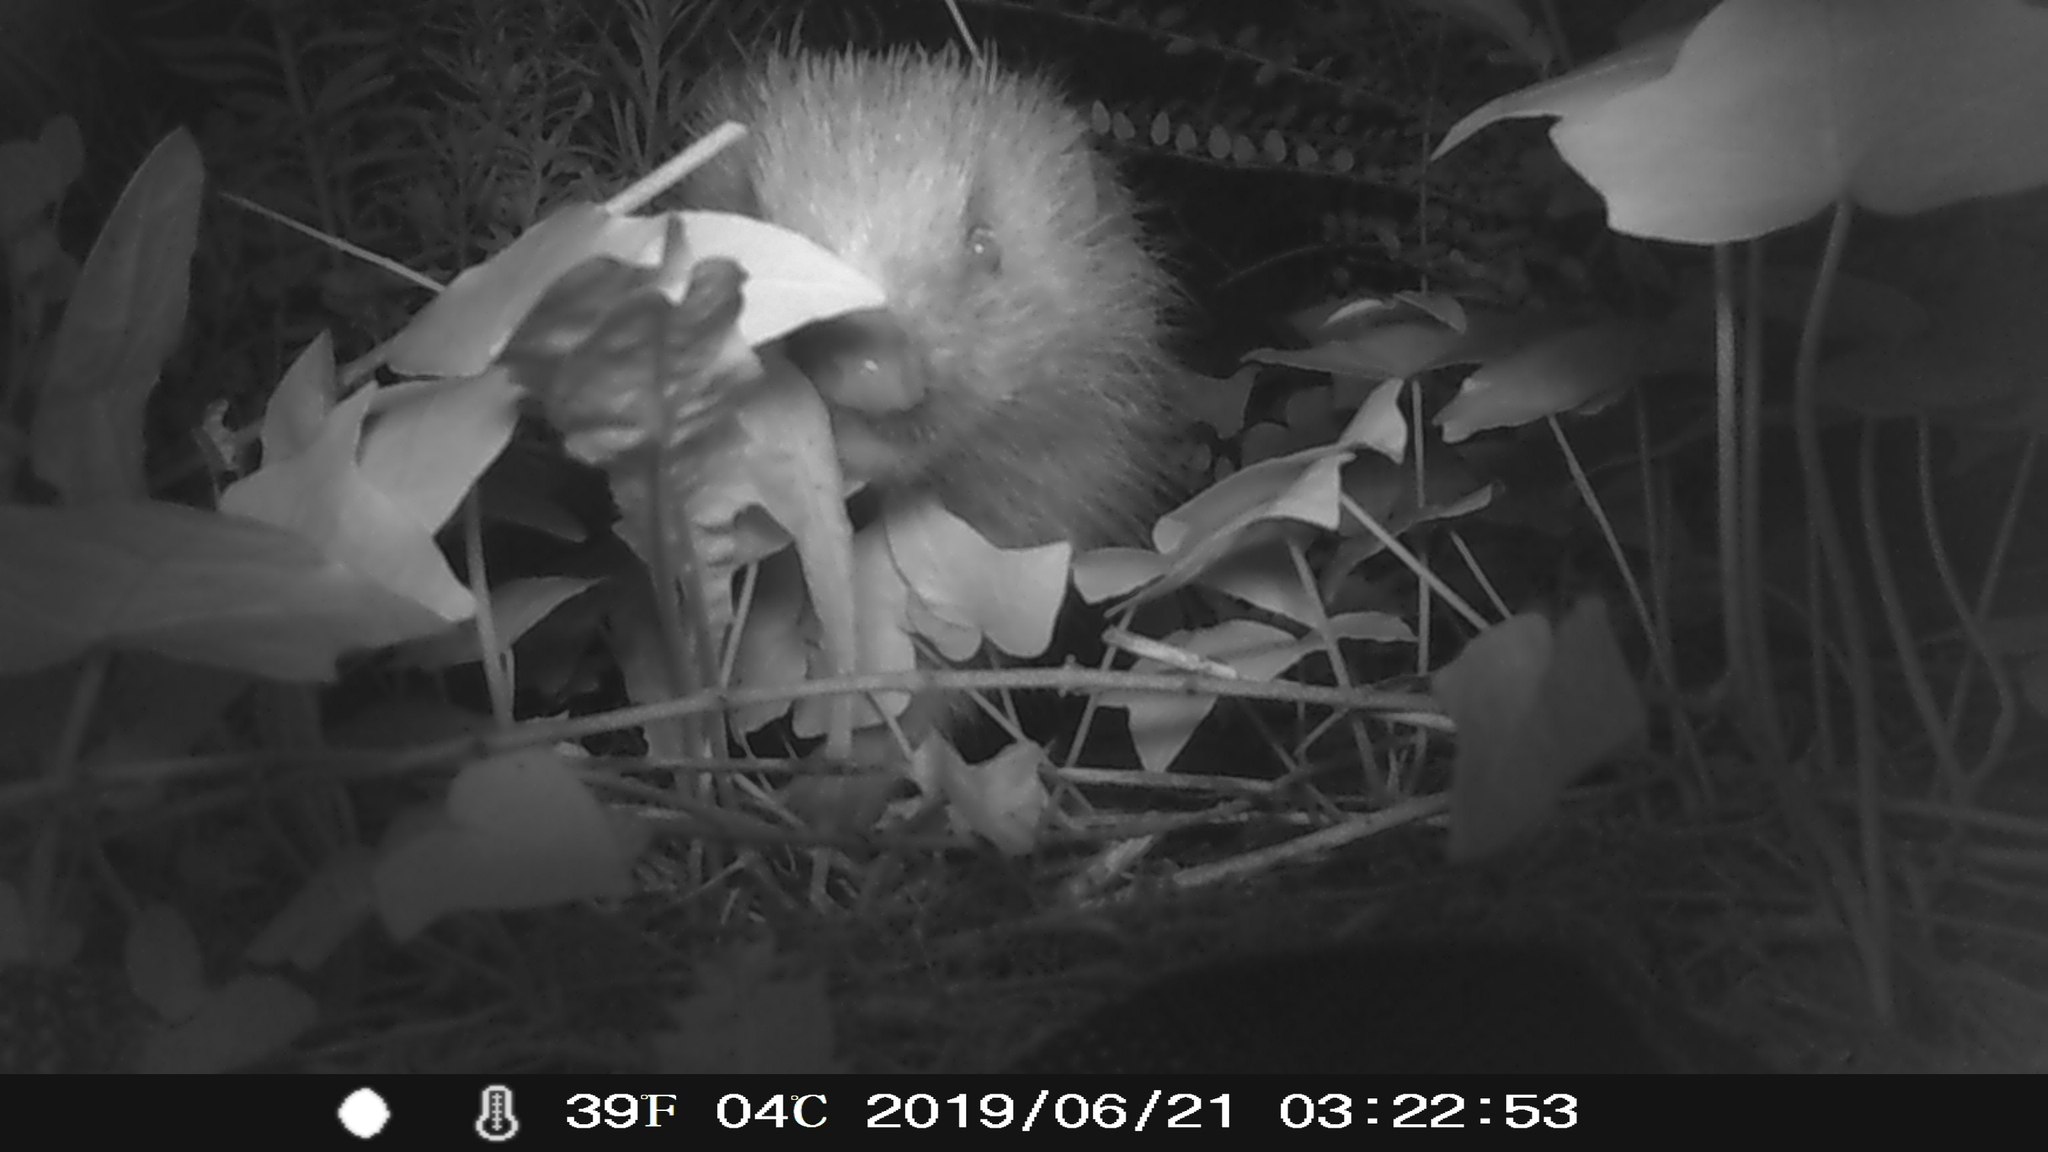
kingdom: Animalia
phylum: Chordata
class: Mammalia
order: Erinaceomorpha
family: Erinaceidae
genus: Erinaceus
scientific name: Erinaceus europaeus
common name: West european hedgehog
